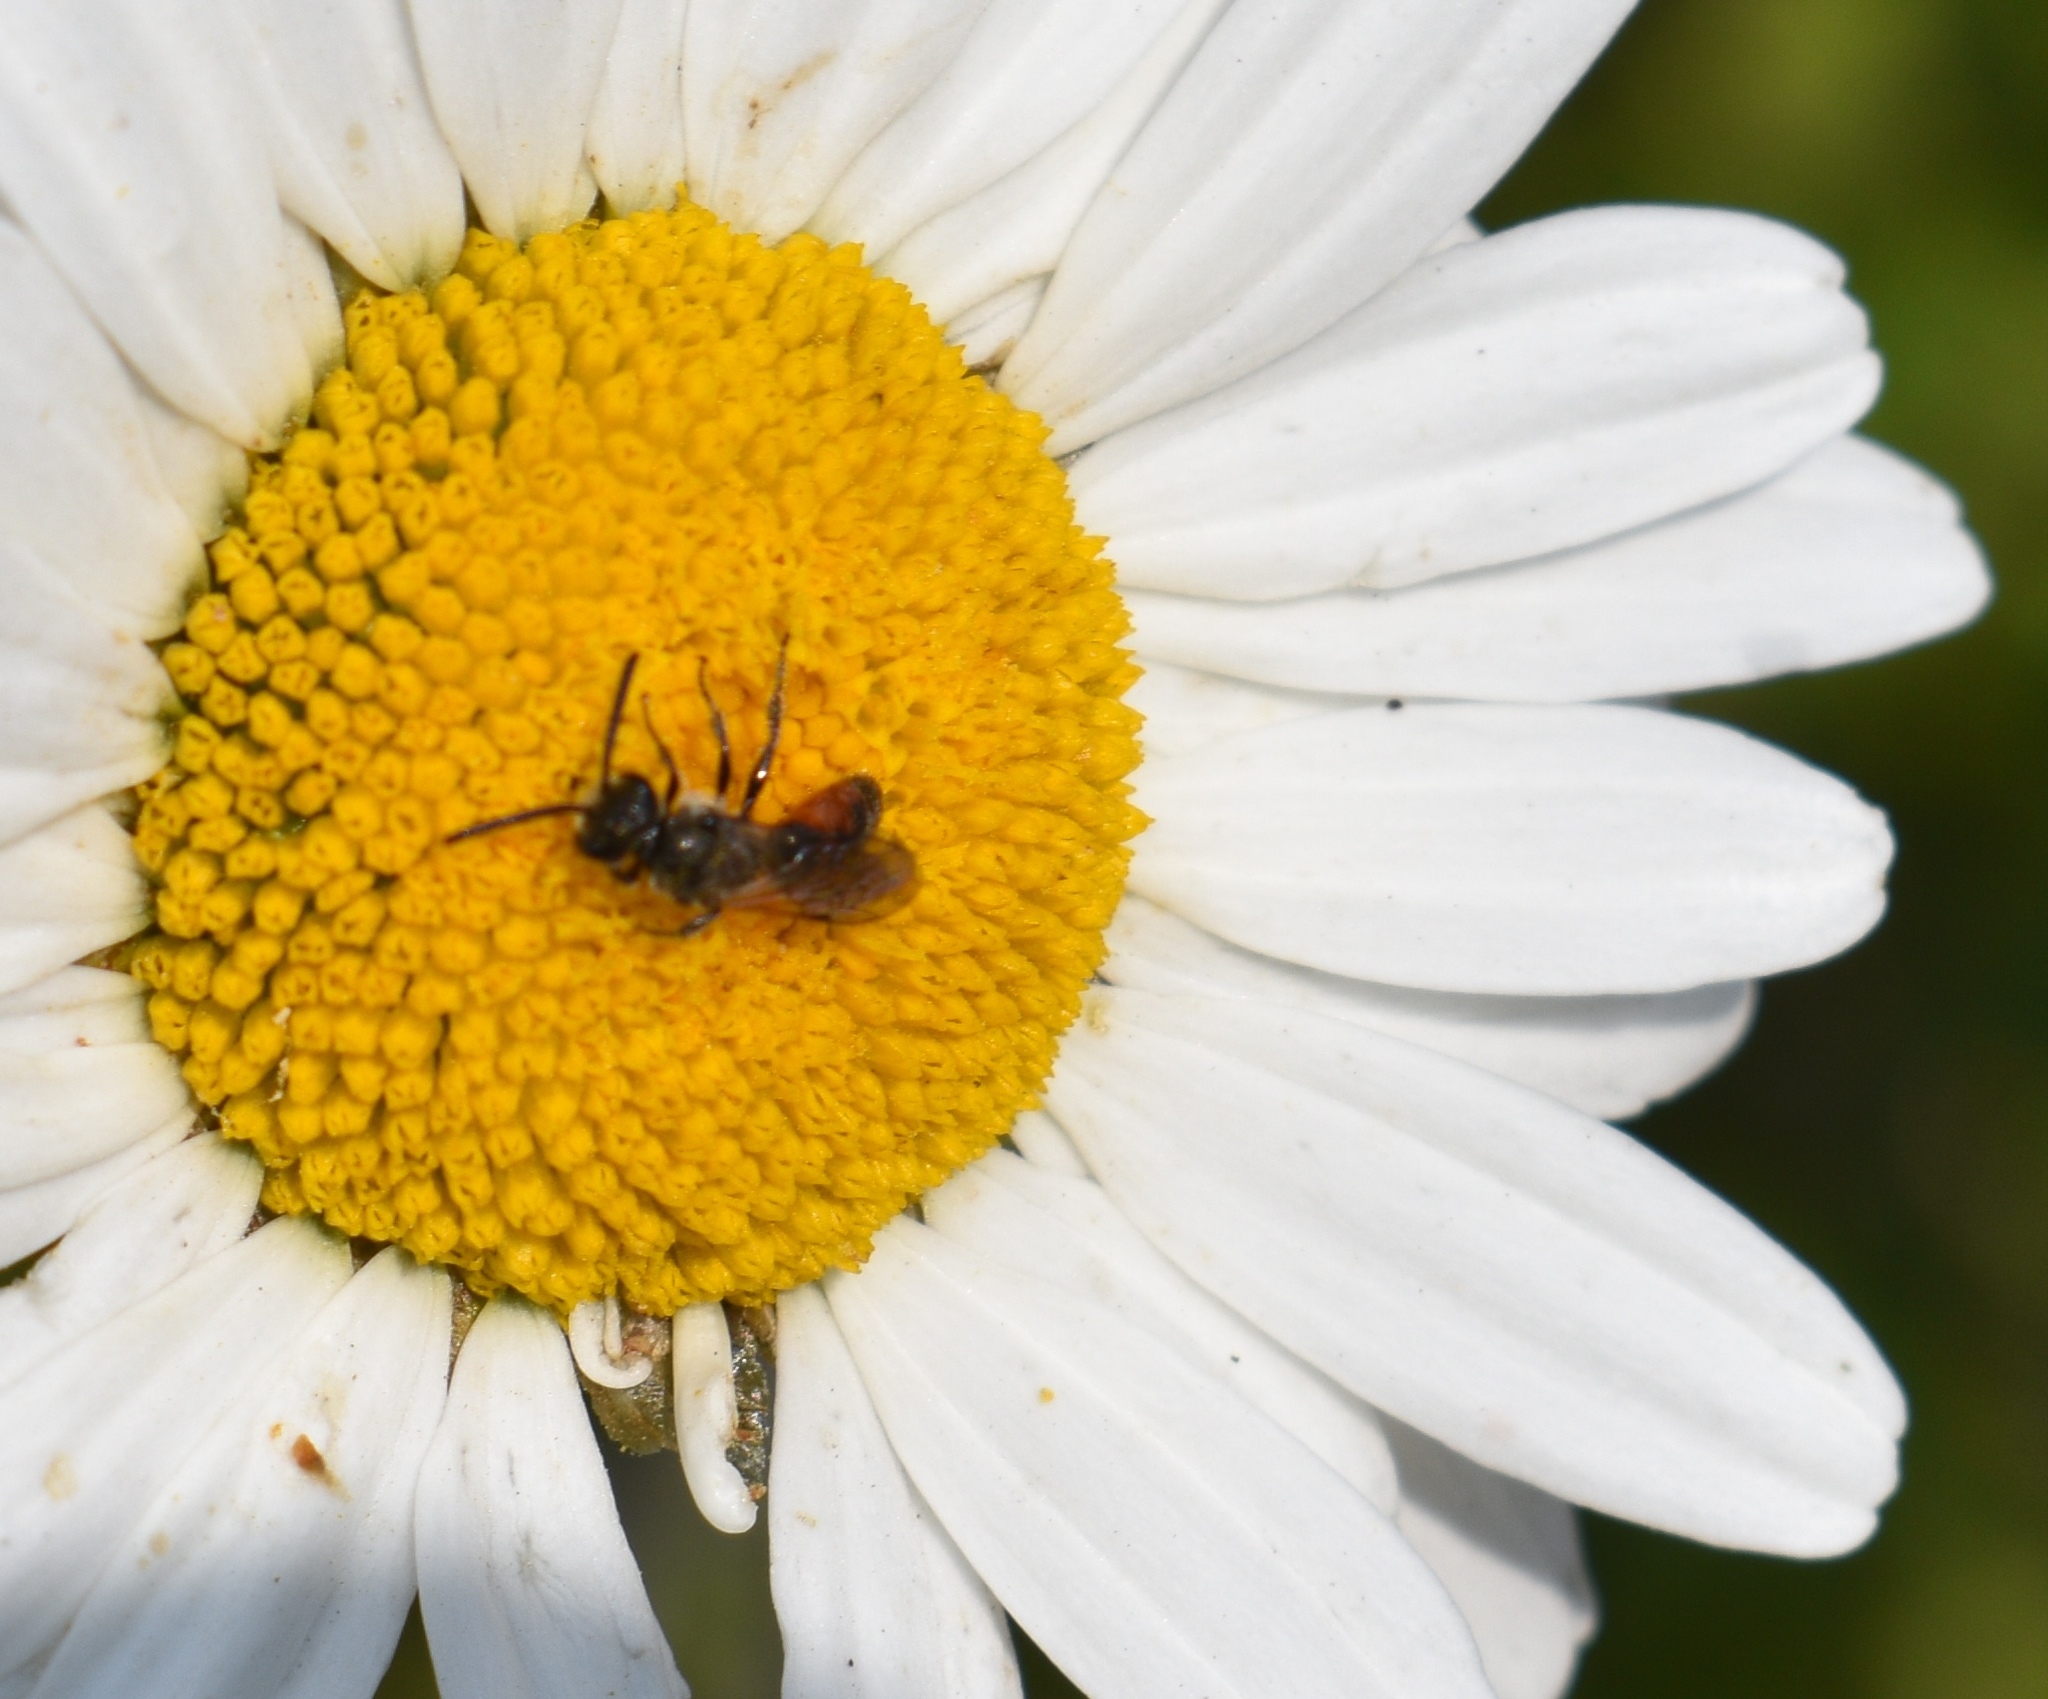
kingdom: Animalia
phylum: Arthropoda
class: Insecta
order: Hymenoptera
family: Halictidae
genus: Sphecodes
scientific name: Sphecodes
